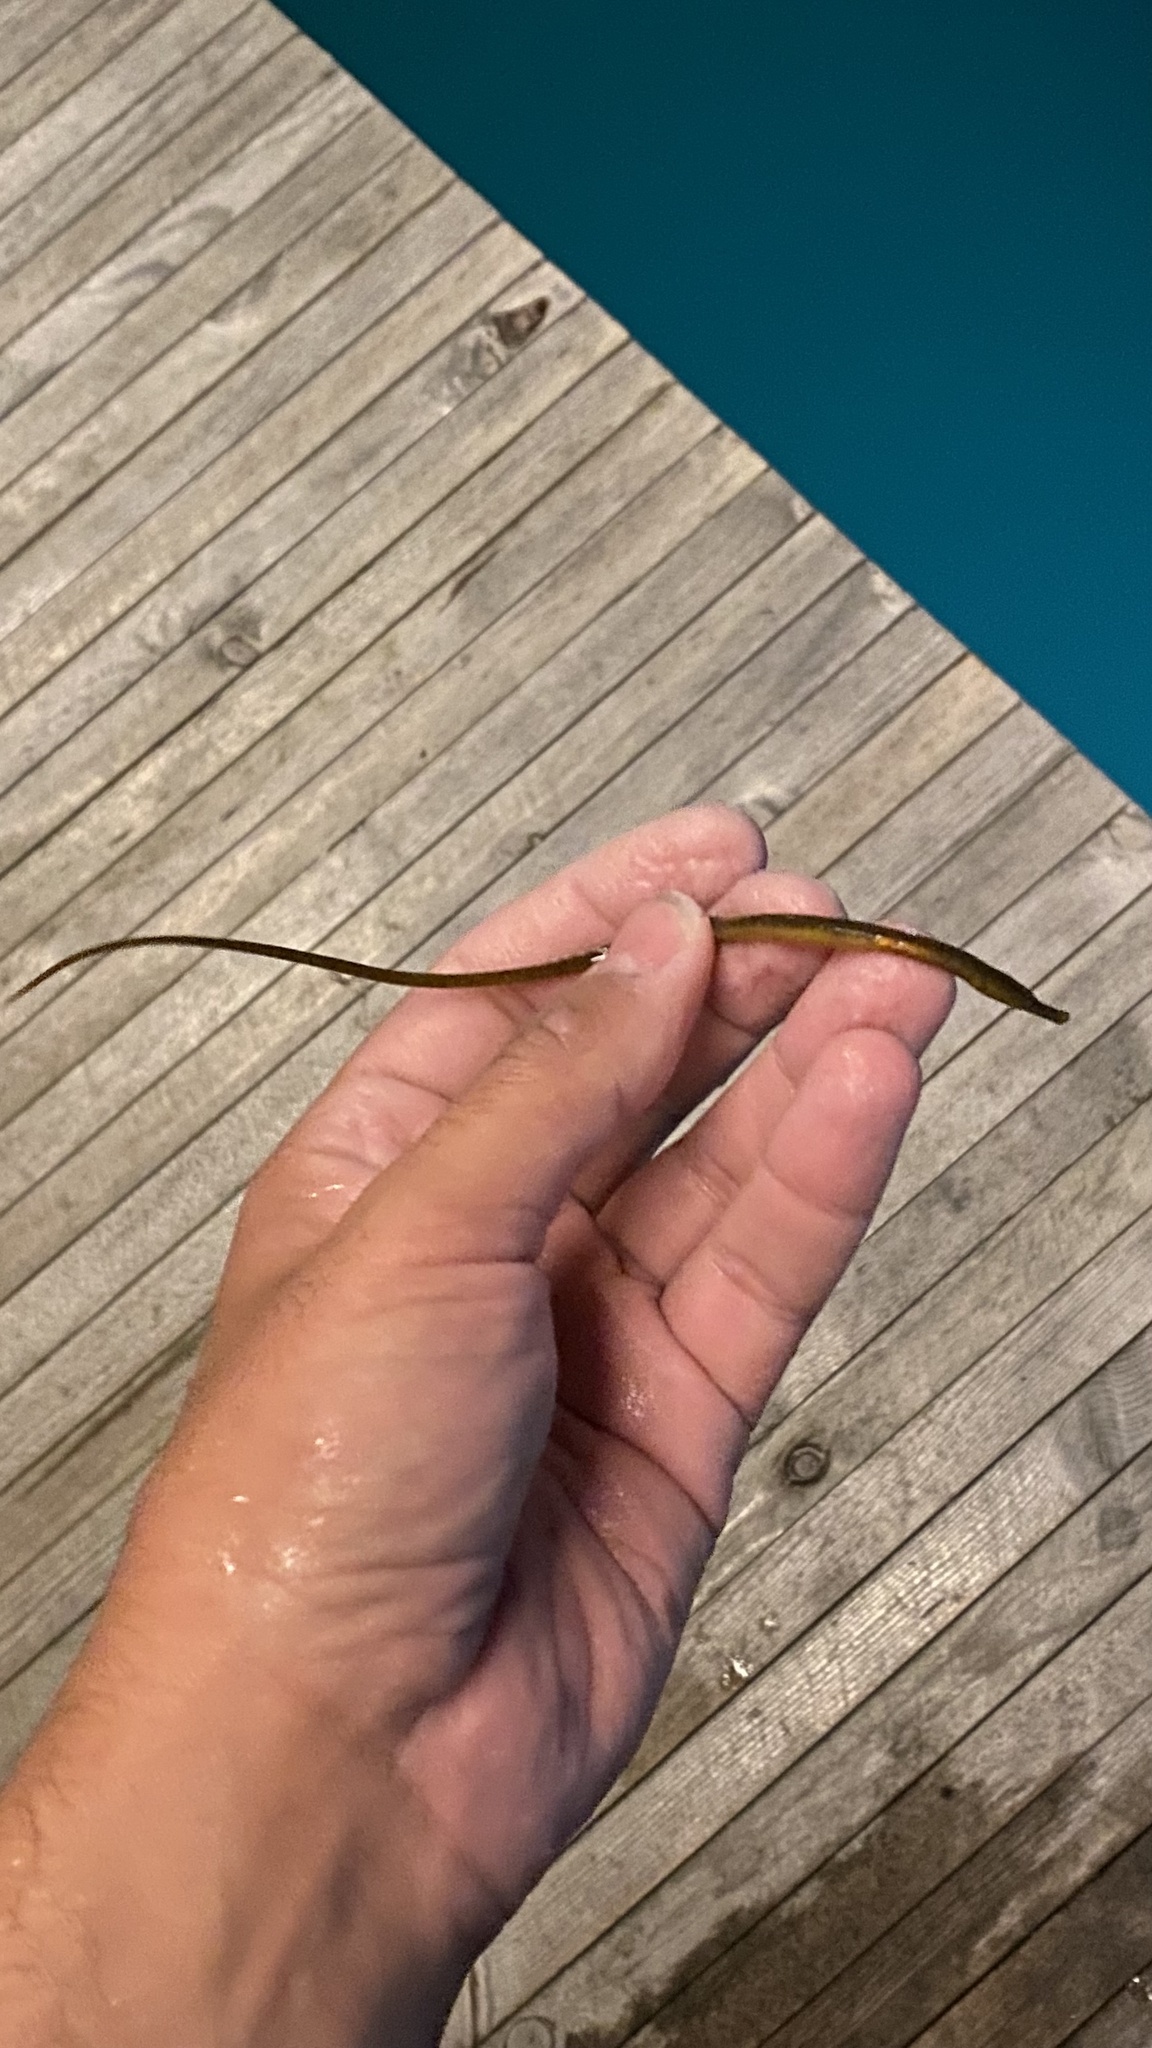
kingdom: Animalia
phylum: Chordata
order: Syngnathiformes
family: Syngnathidae
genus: Syngnathus
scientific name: Syngnathus rostellatus
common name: Nilsson's pipefish
